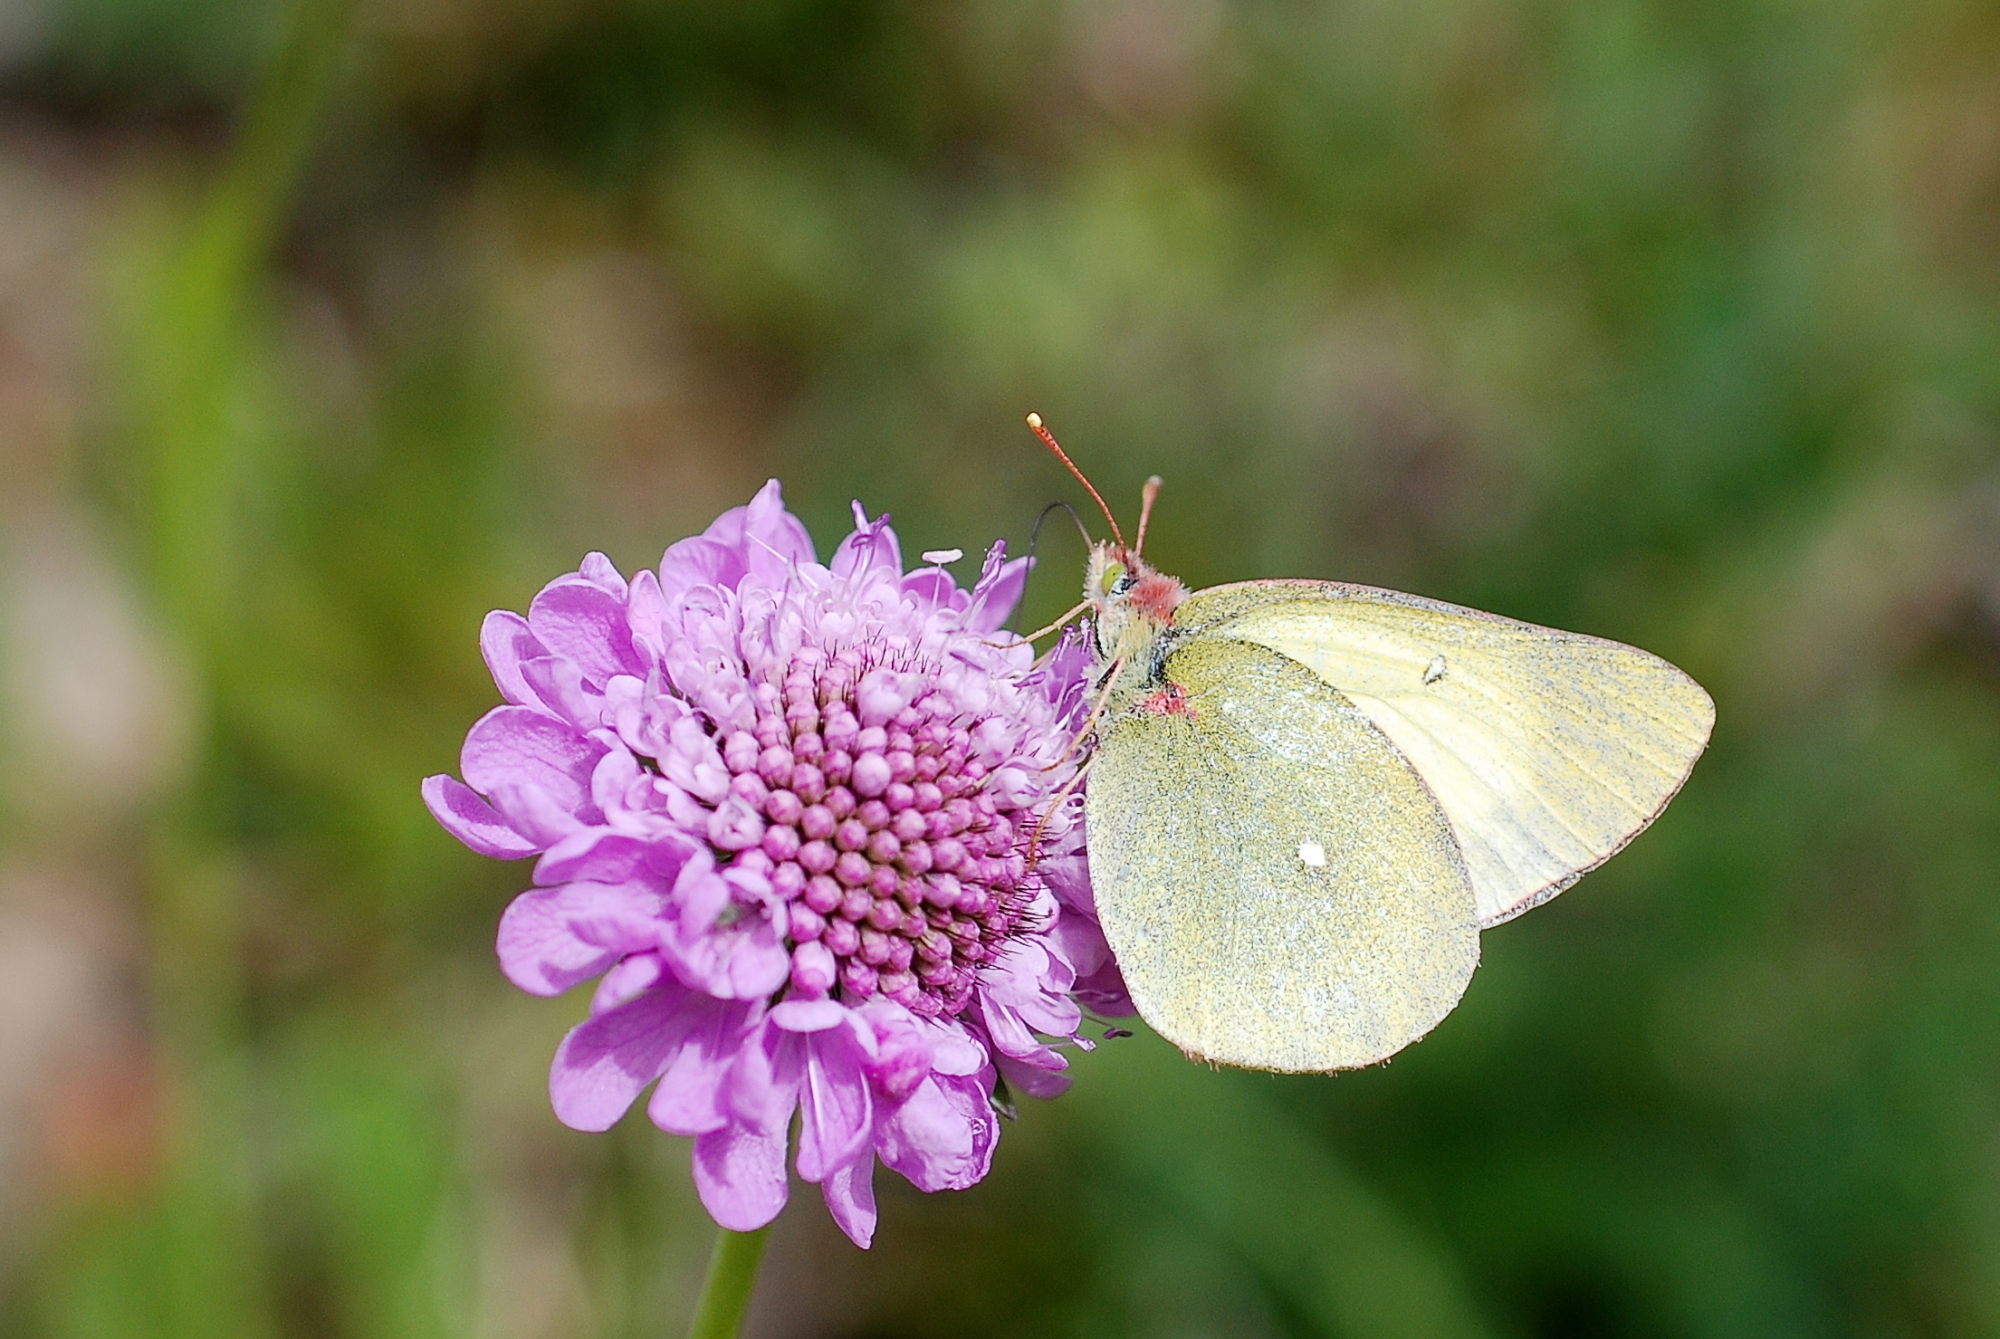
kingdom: Animalia
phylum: Arthropoda
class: Insecta
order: Lepidoptera
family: Pieridae
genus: Colias
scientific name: Colias palaeno
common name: Moorland clouded yellow
